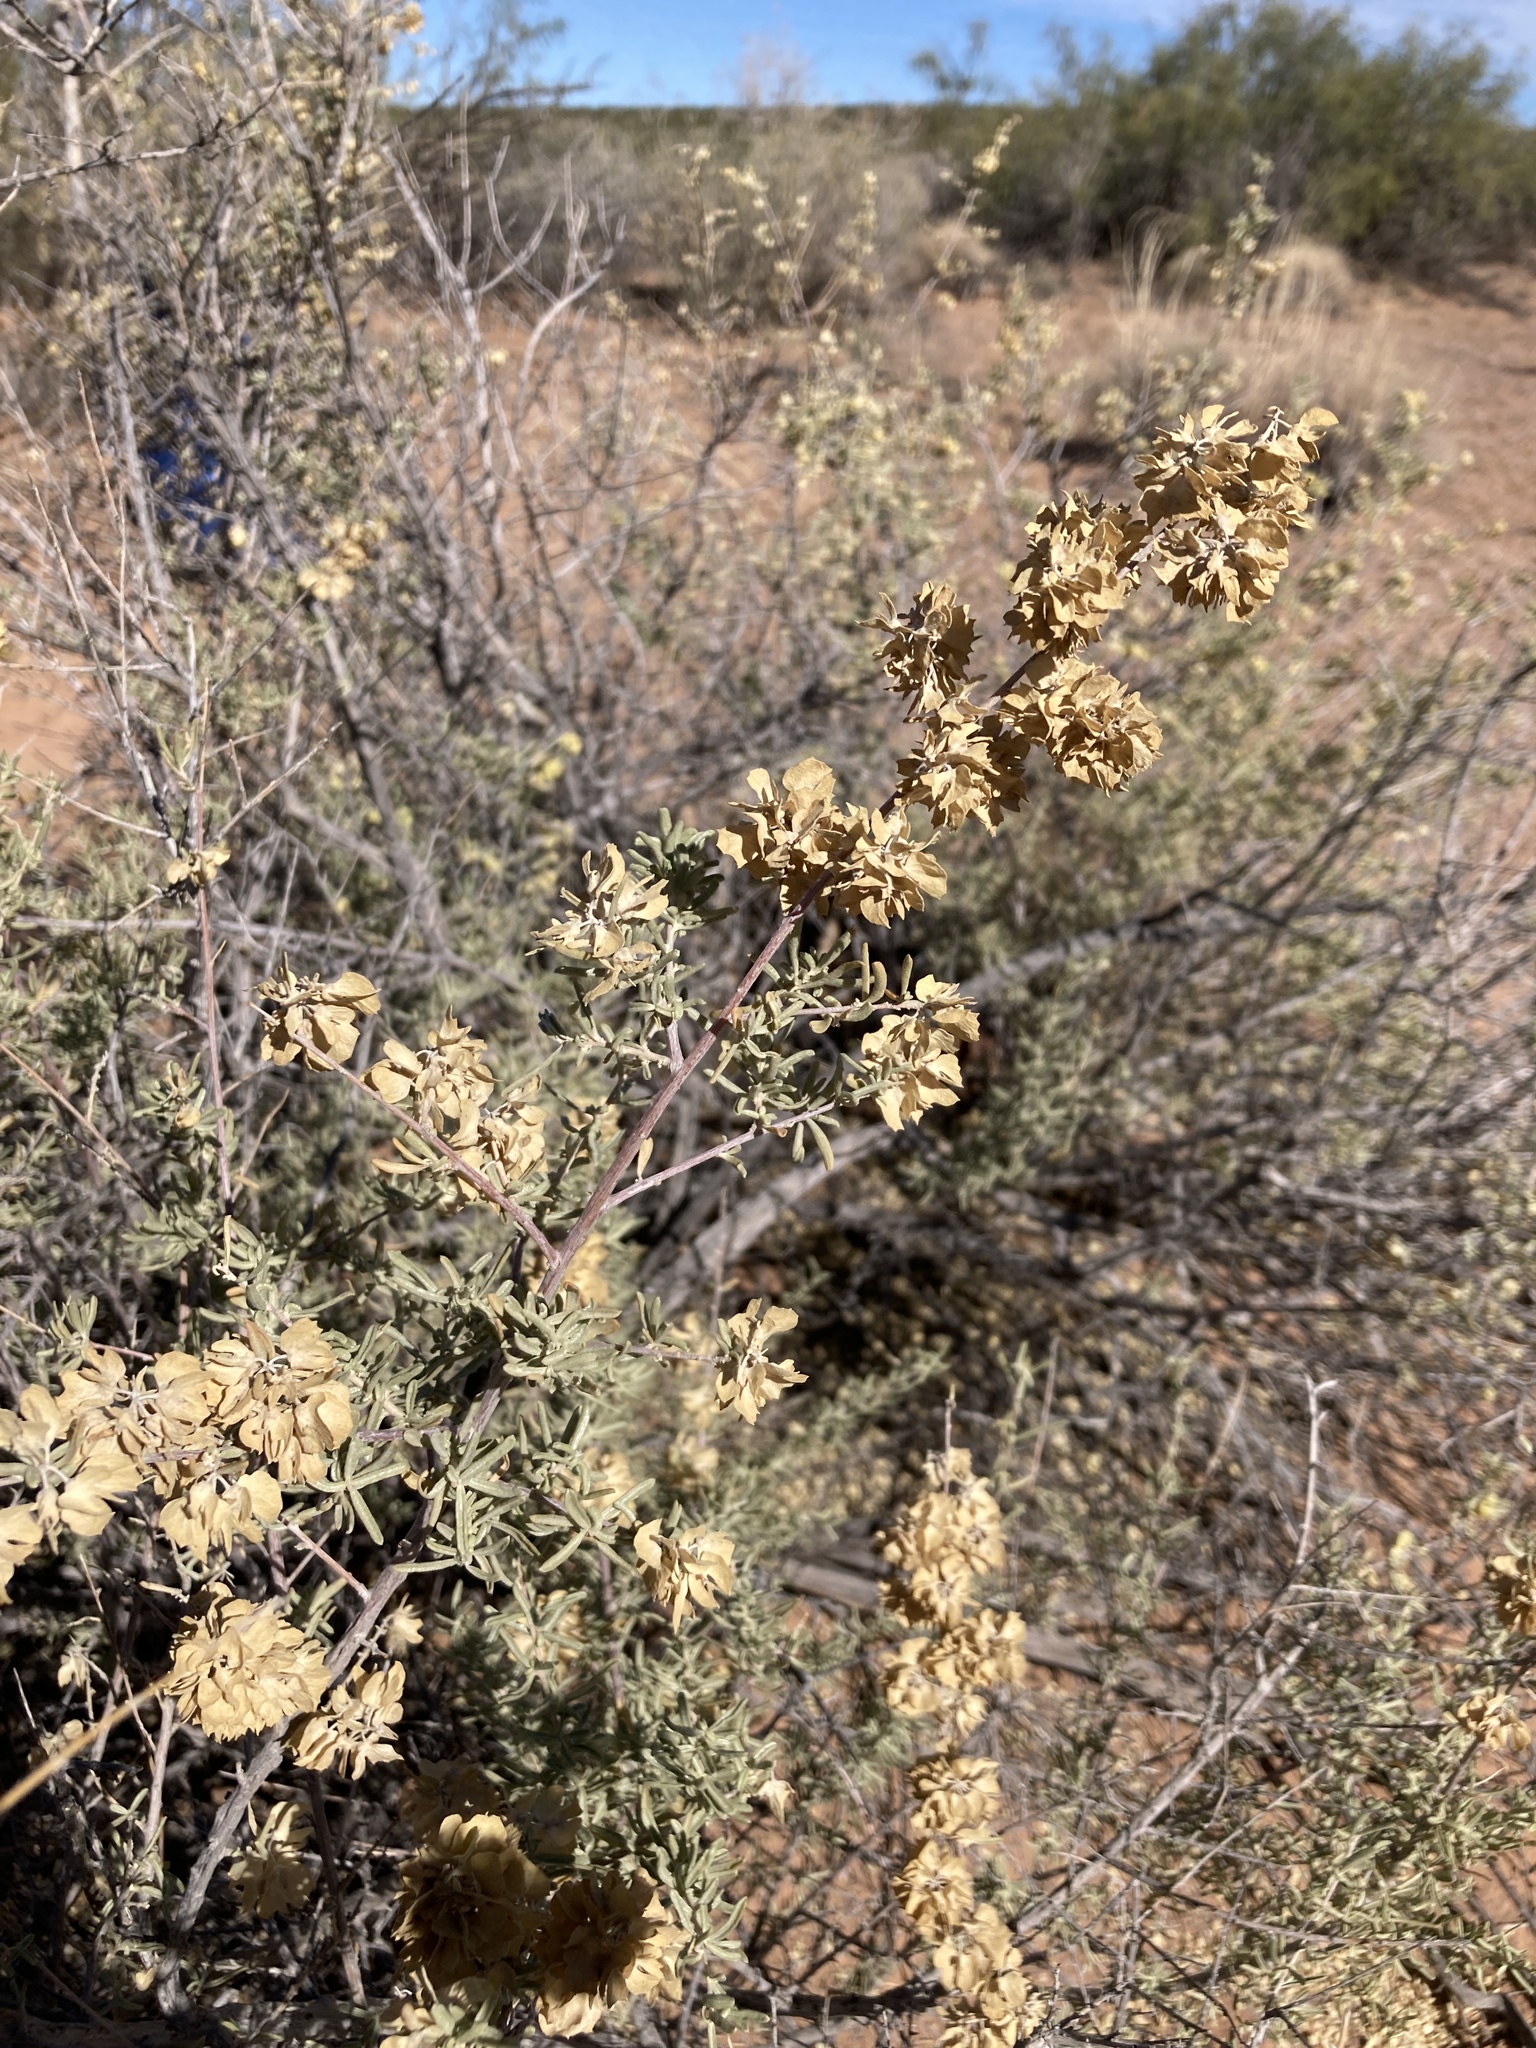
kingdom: Plantae
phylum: Tracheophyta
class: Magnoliopsida
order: Caryophyllales
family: Amaranthaceae
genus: Atriplex
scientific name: Atriplex canescens
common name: Four-wing saltbush
